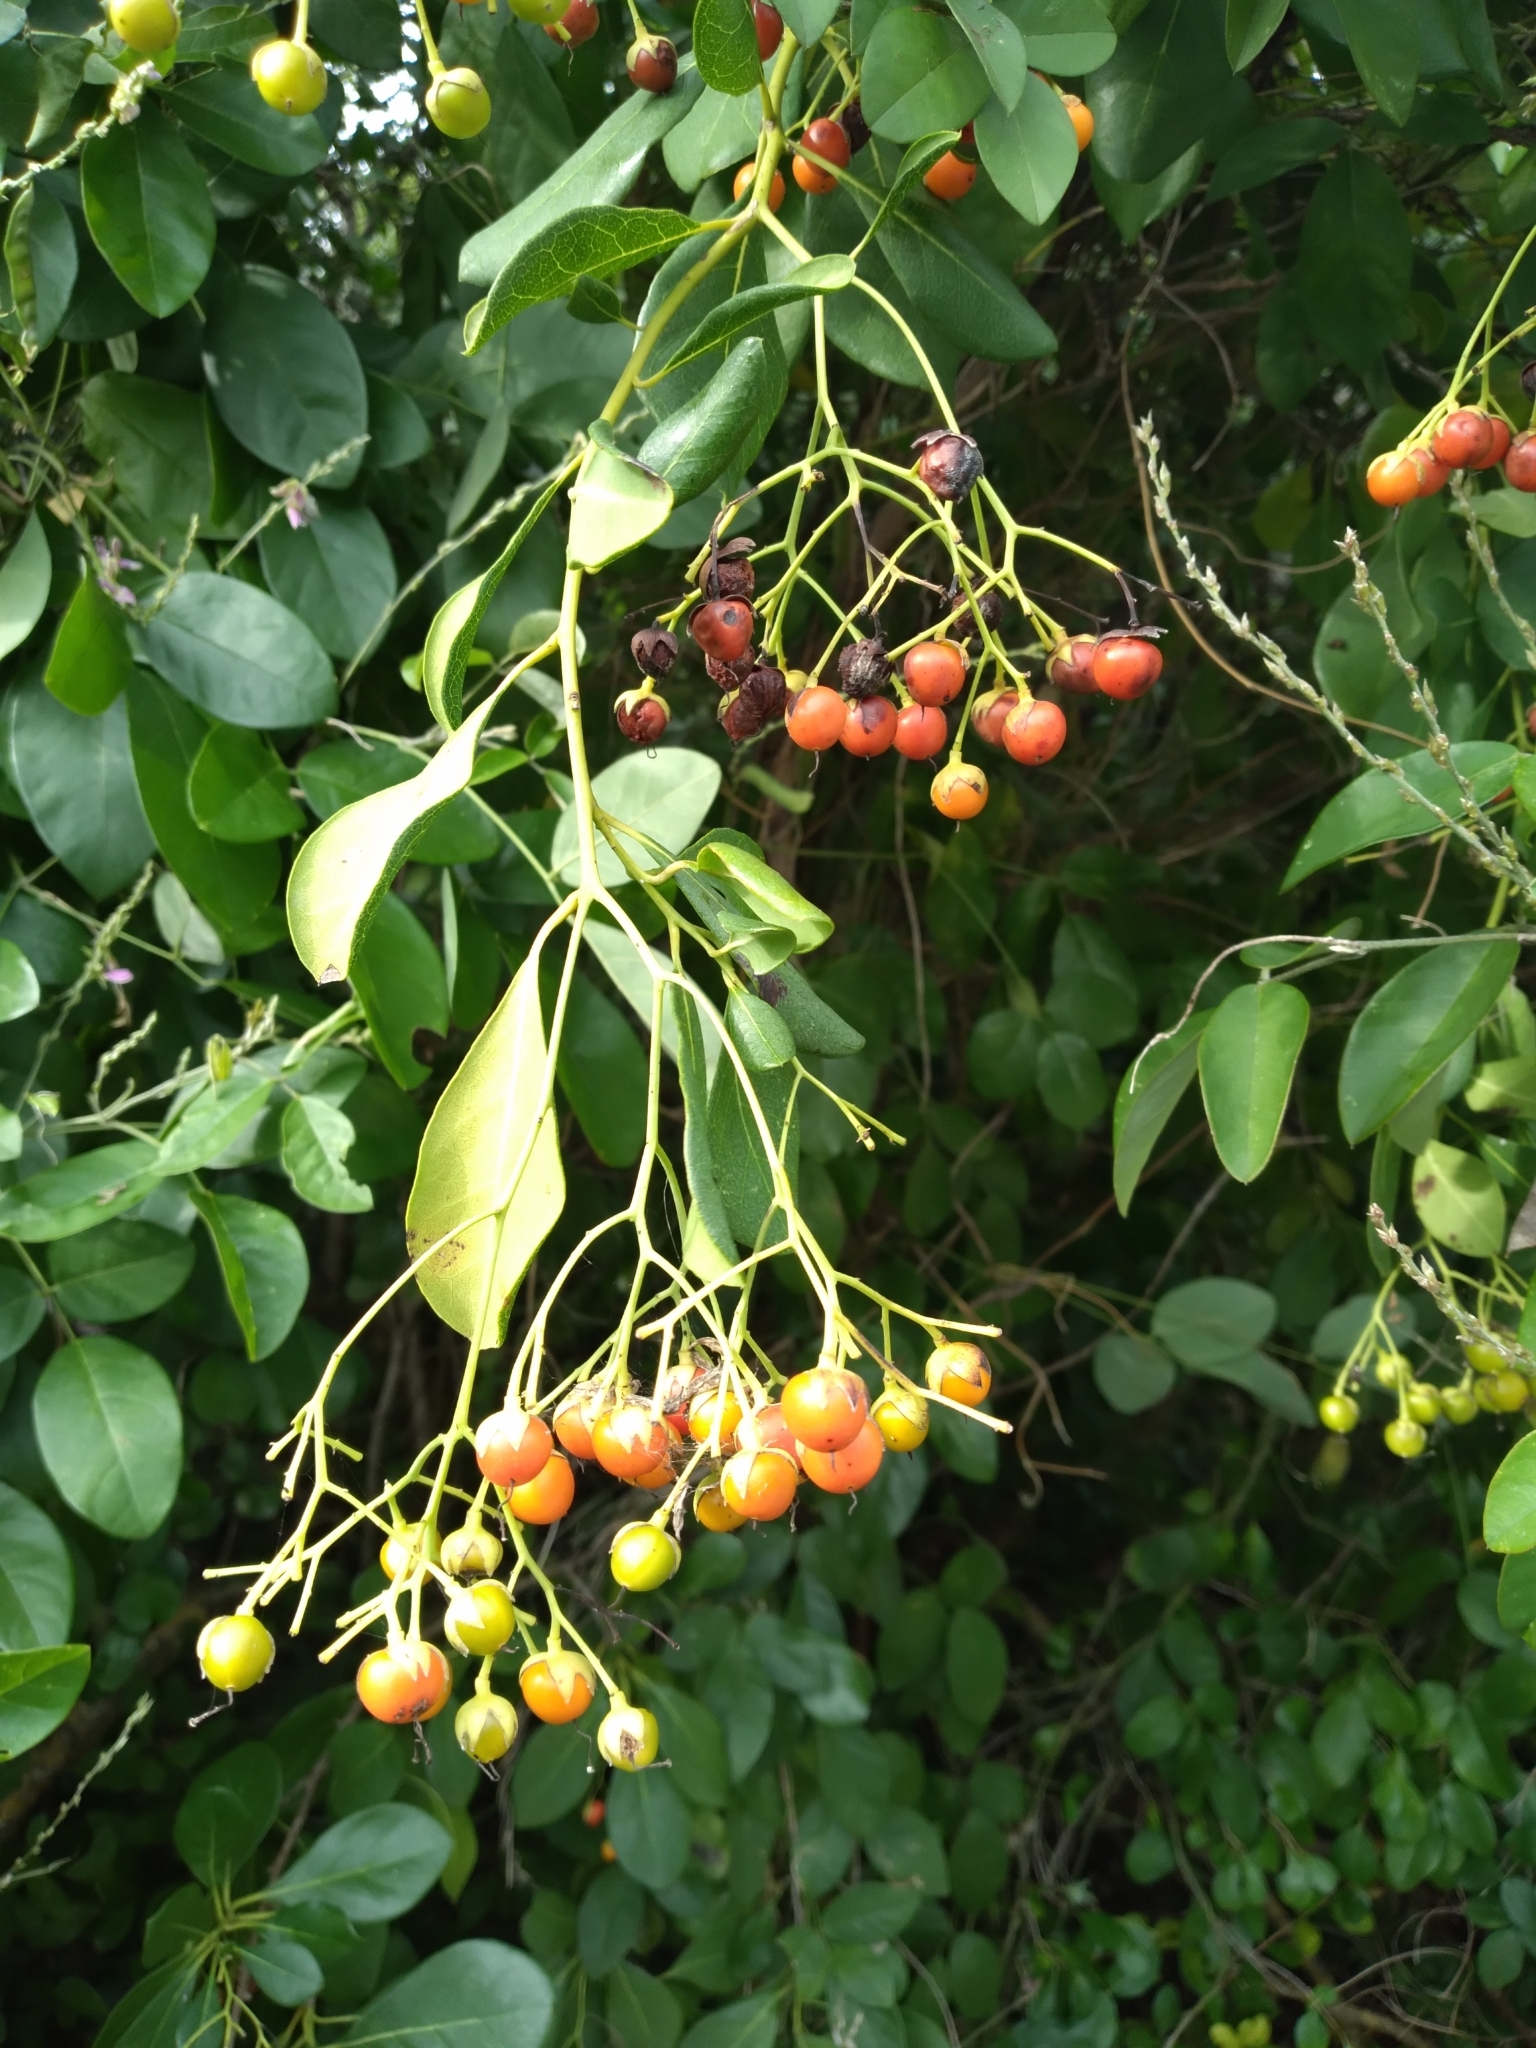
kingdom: Plantae
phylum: Tracheophyta
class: Magnoliopsida
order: Boraginales
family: Ehretiaceae
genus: Bourreria
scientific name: Bourreria succulenta
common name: Cherry
